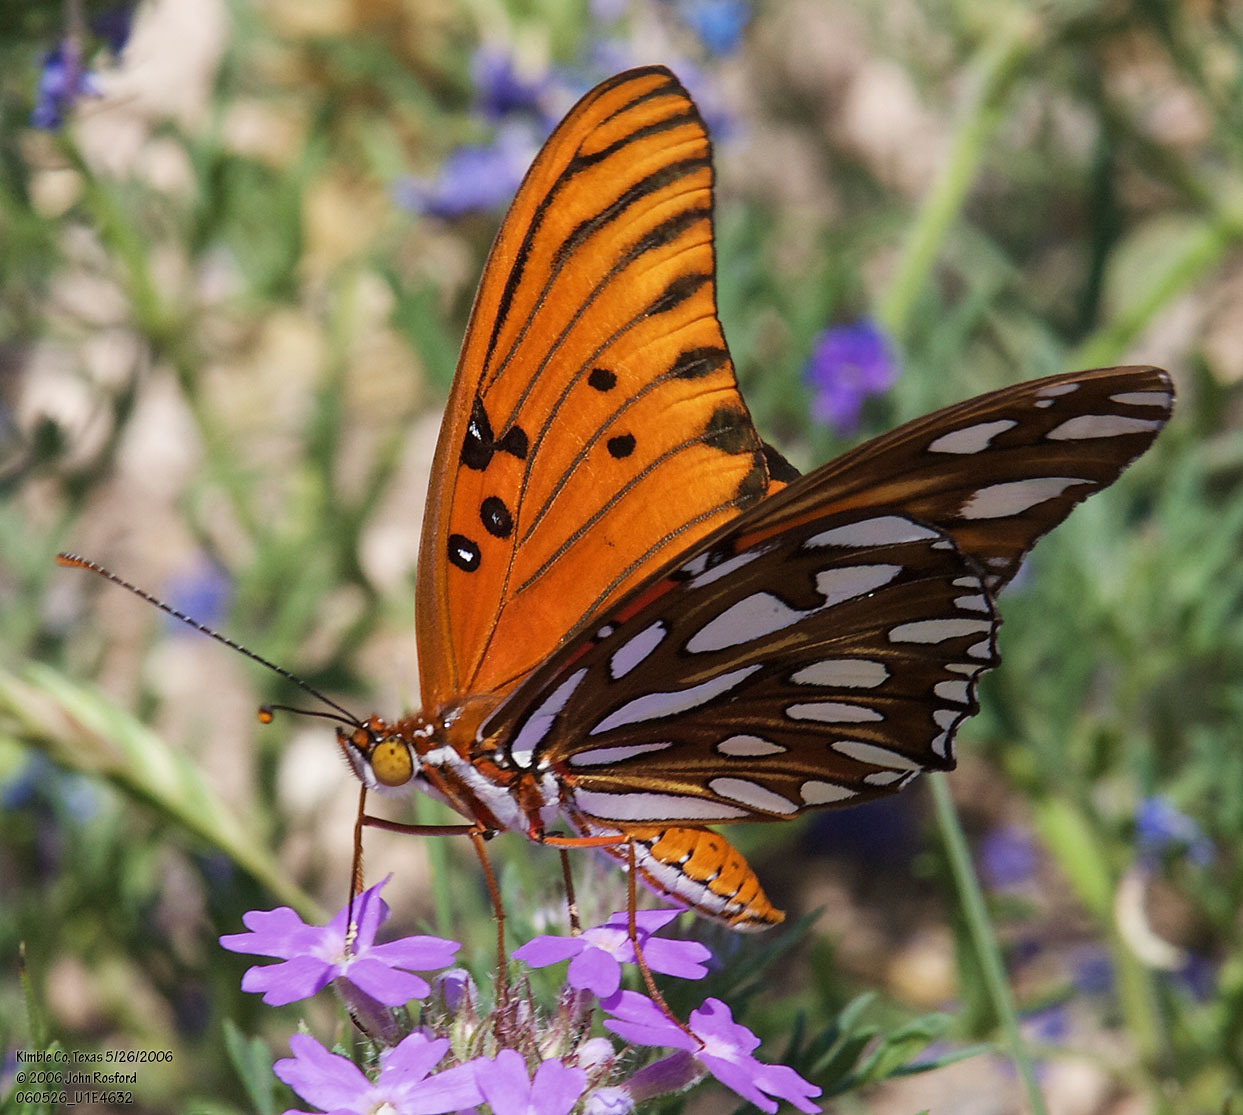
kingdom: Animalia
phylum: Arthropoda
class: Insecta
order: Lepidoptera
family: Nymphalidae
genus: Dione
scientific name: Dione vanillae
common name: Gulf fritillary
